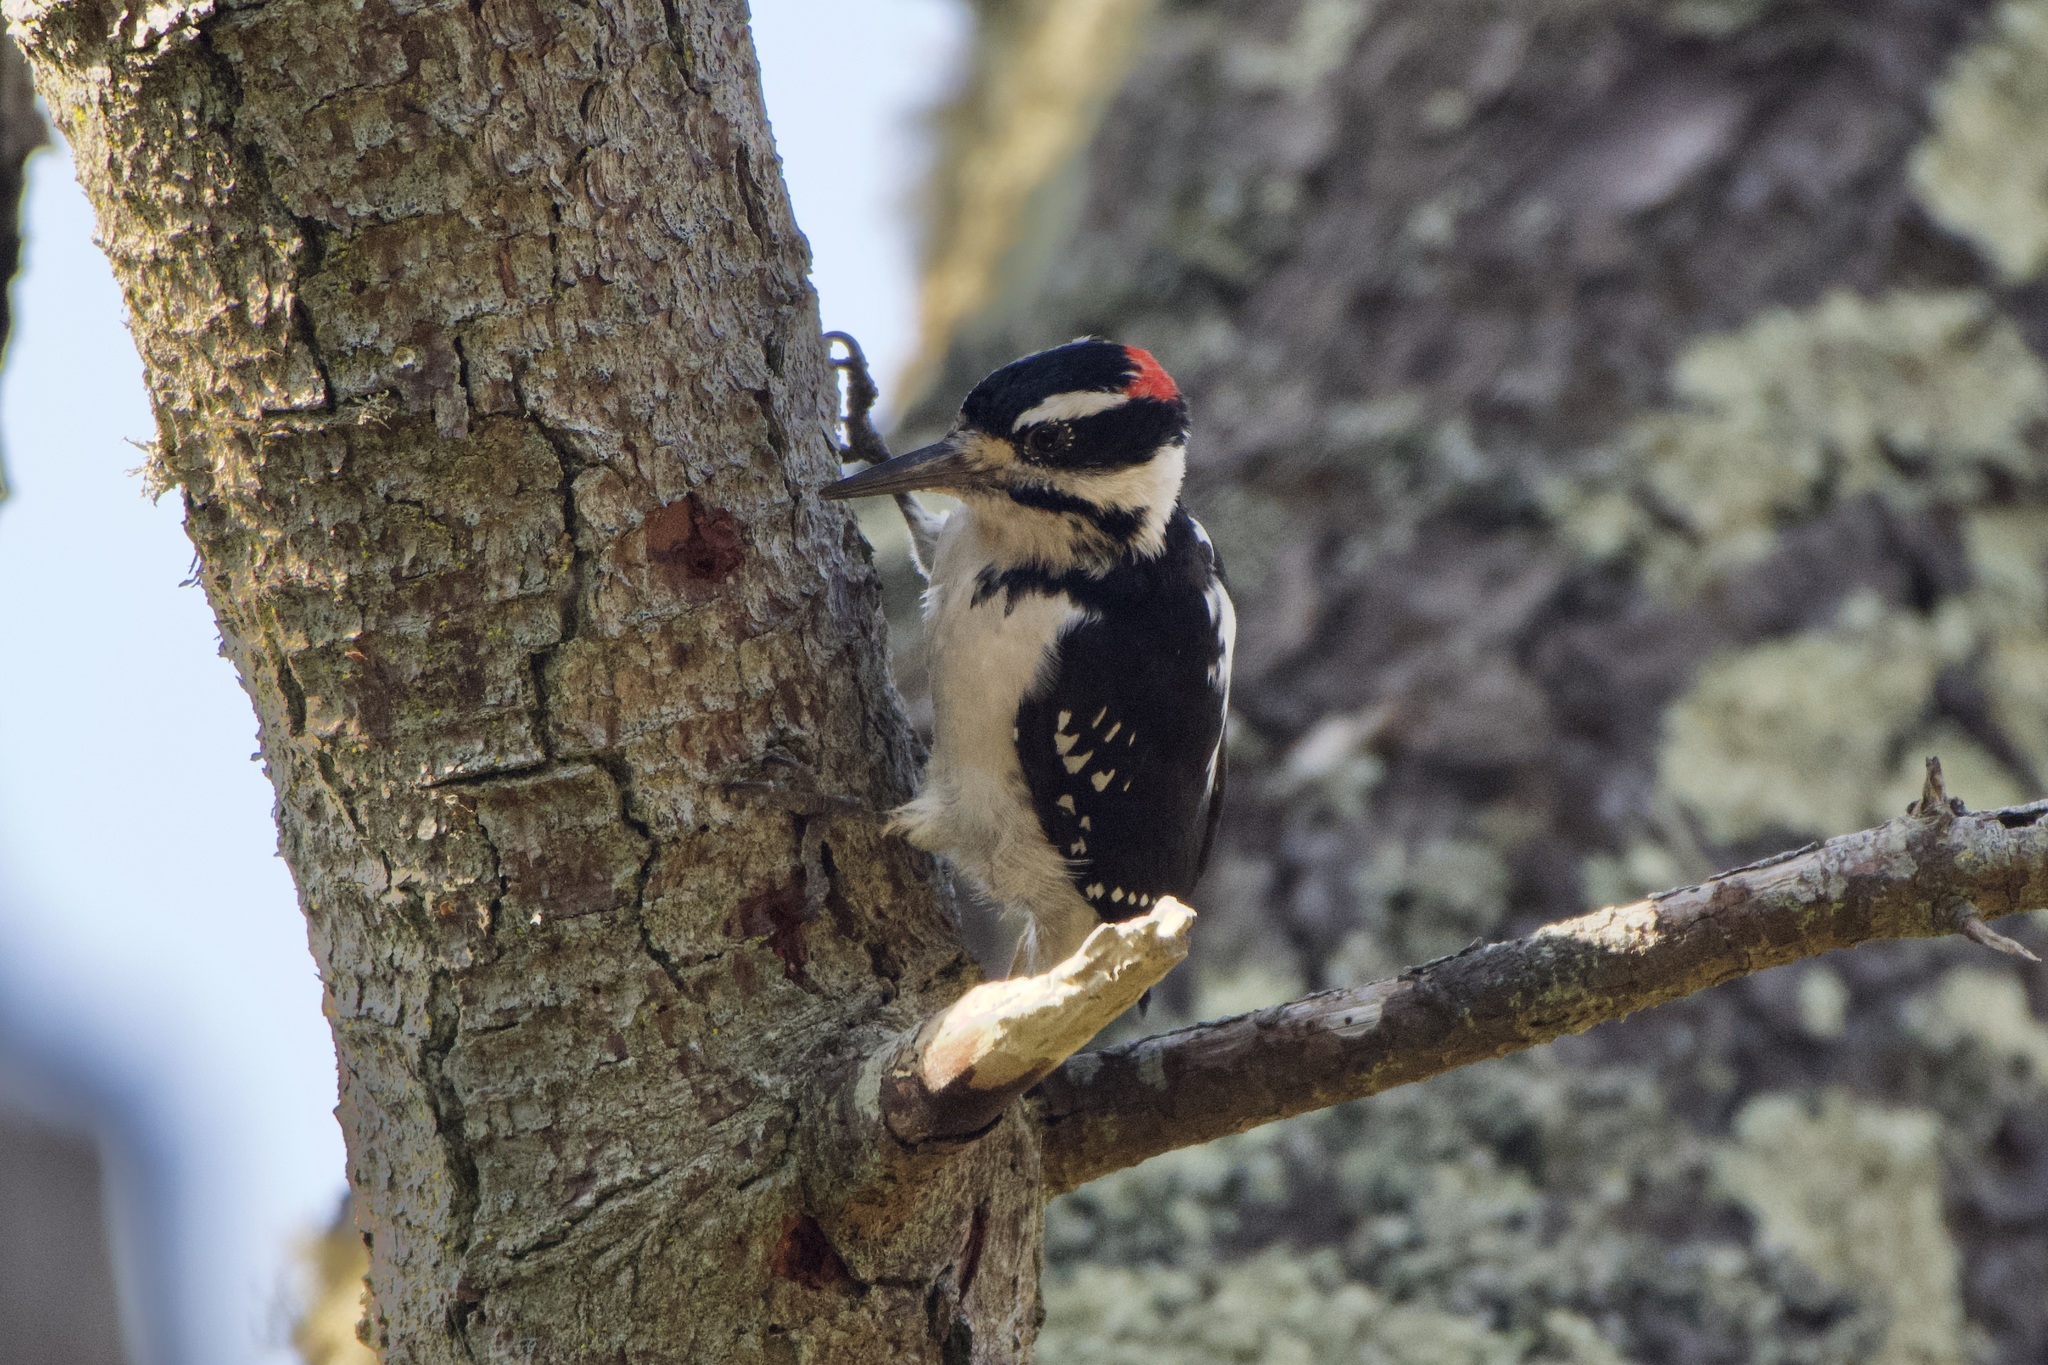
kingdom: Animalia
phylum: Chordata
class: Aves
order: Piciformes
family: Picidae
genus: Leuconotopicus
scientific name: Leuconotopicus villosus
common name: Hairy woodpecker
